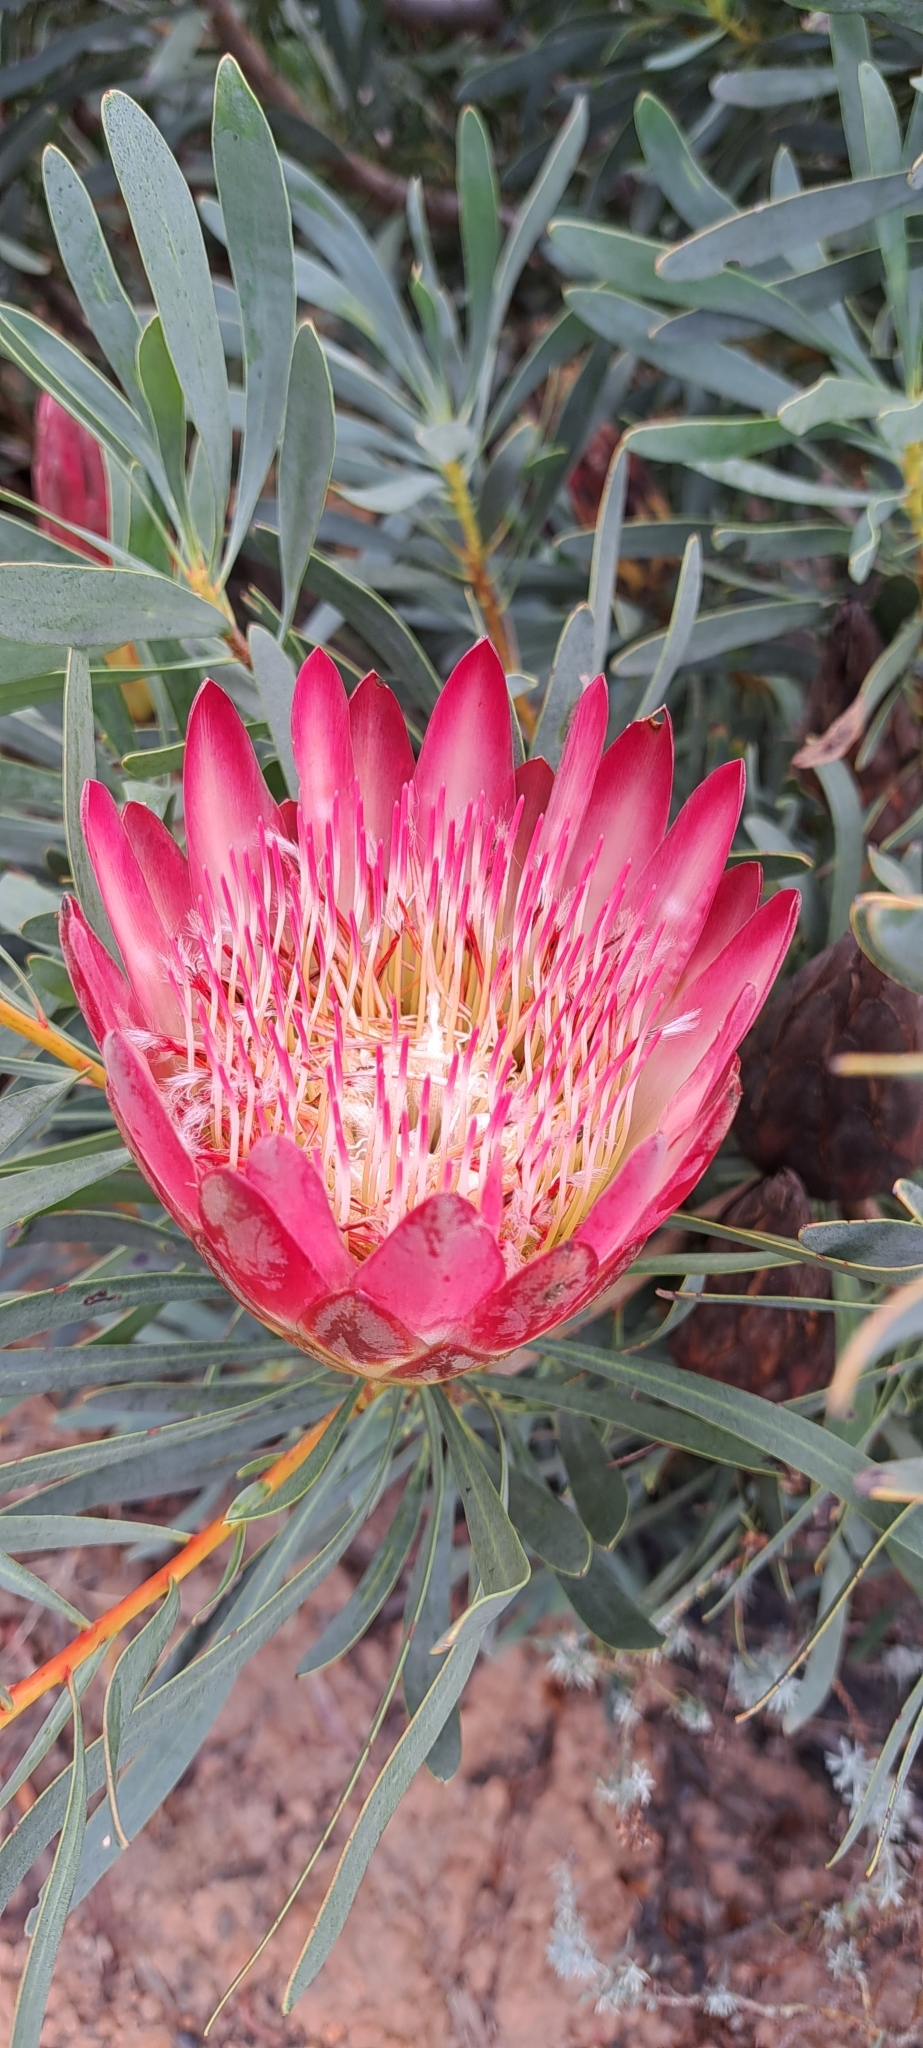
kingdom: Plantae
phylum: Tracheophyta
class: Magnoliopsida
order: Proteales
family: Proteaceae
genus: Protea
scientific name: Protea repens
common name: Sugarbush
